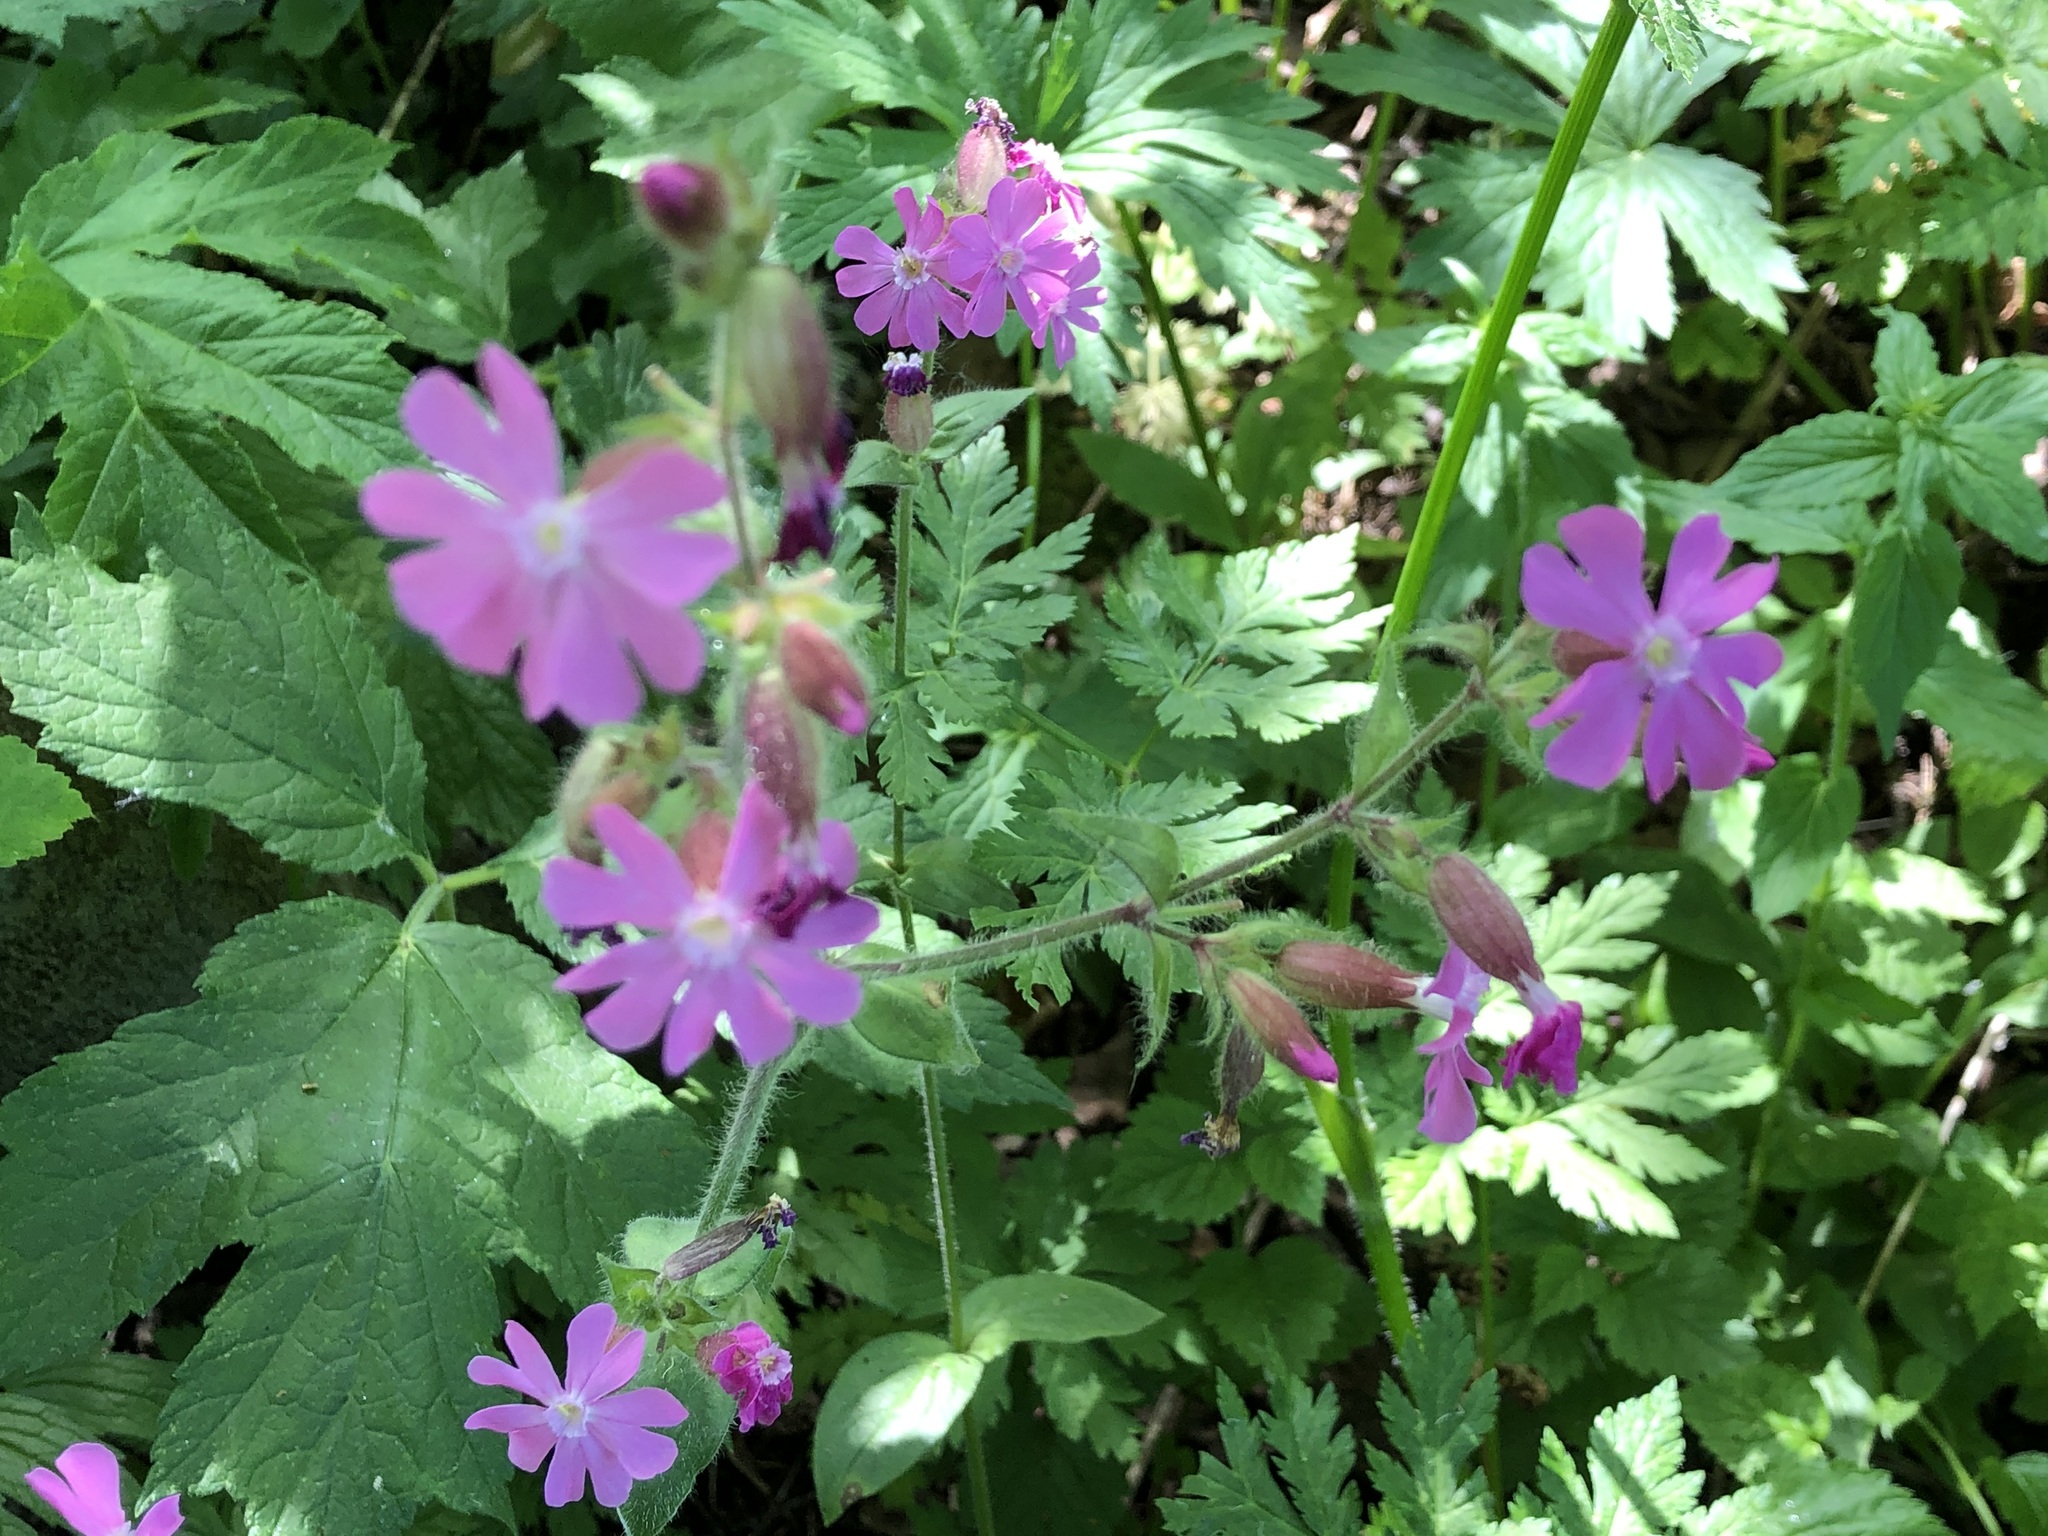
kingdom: Plantae
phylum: Tracheophyta
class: Magnoliopsida
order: Caryophyllales
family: Caryophyllaceae
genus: Silene
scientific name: Silene dioica
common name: Red campion
